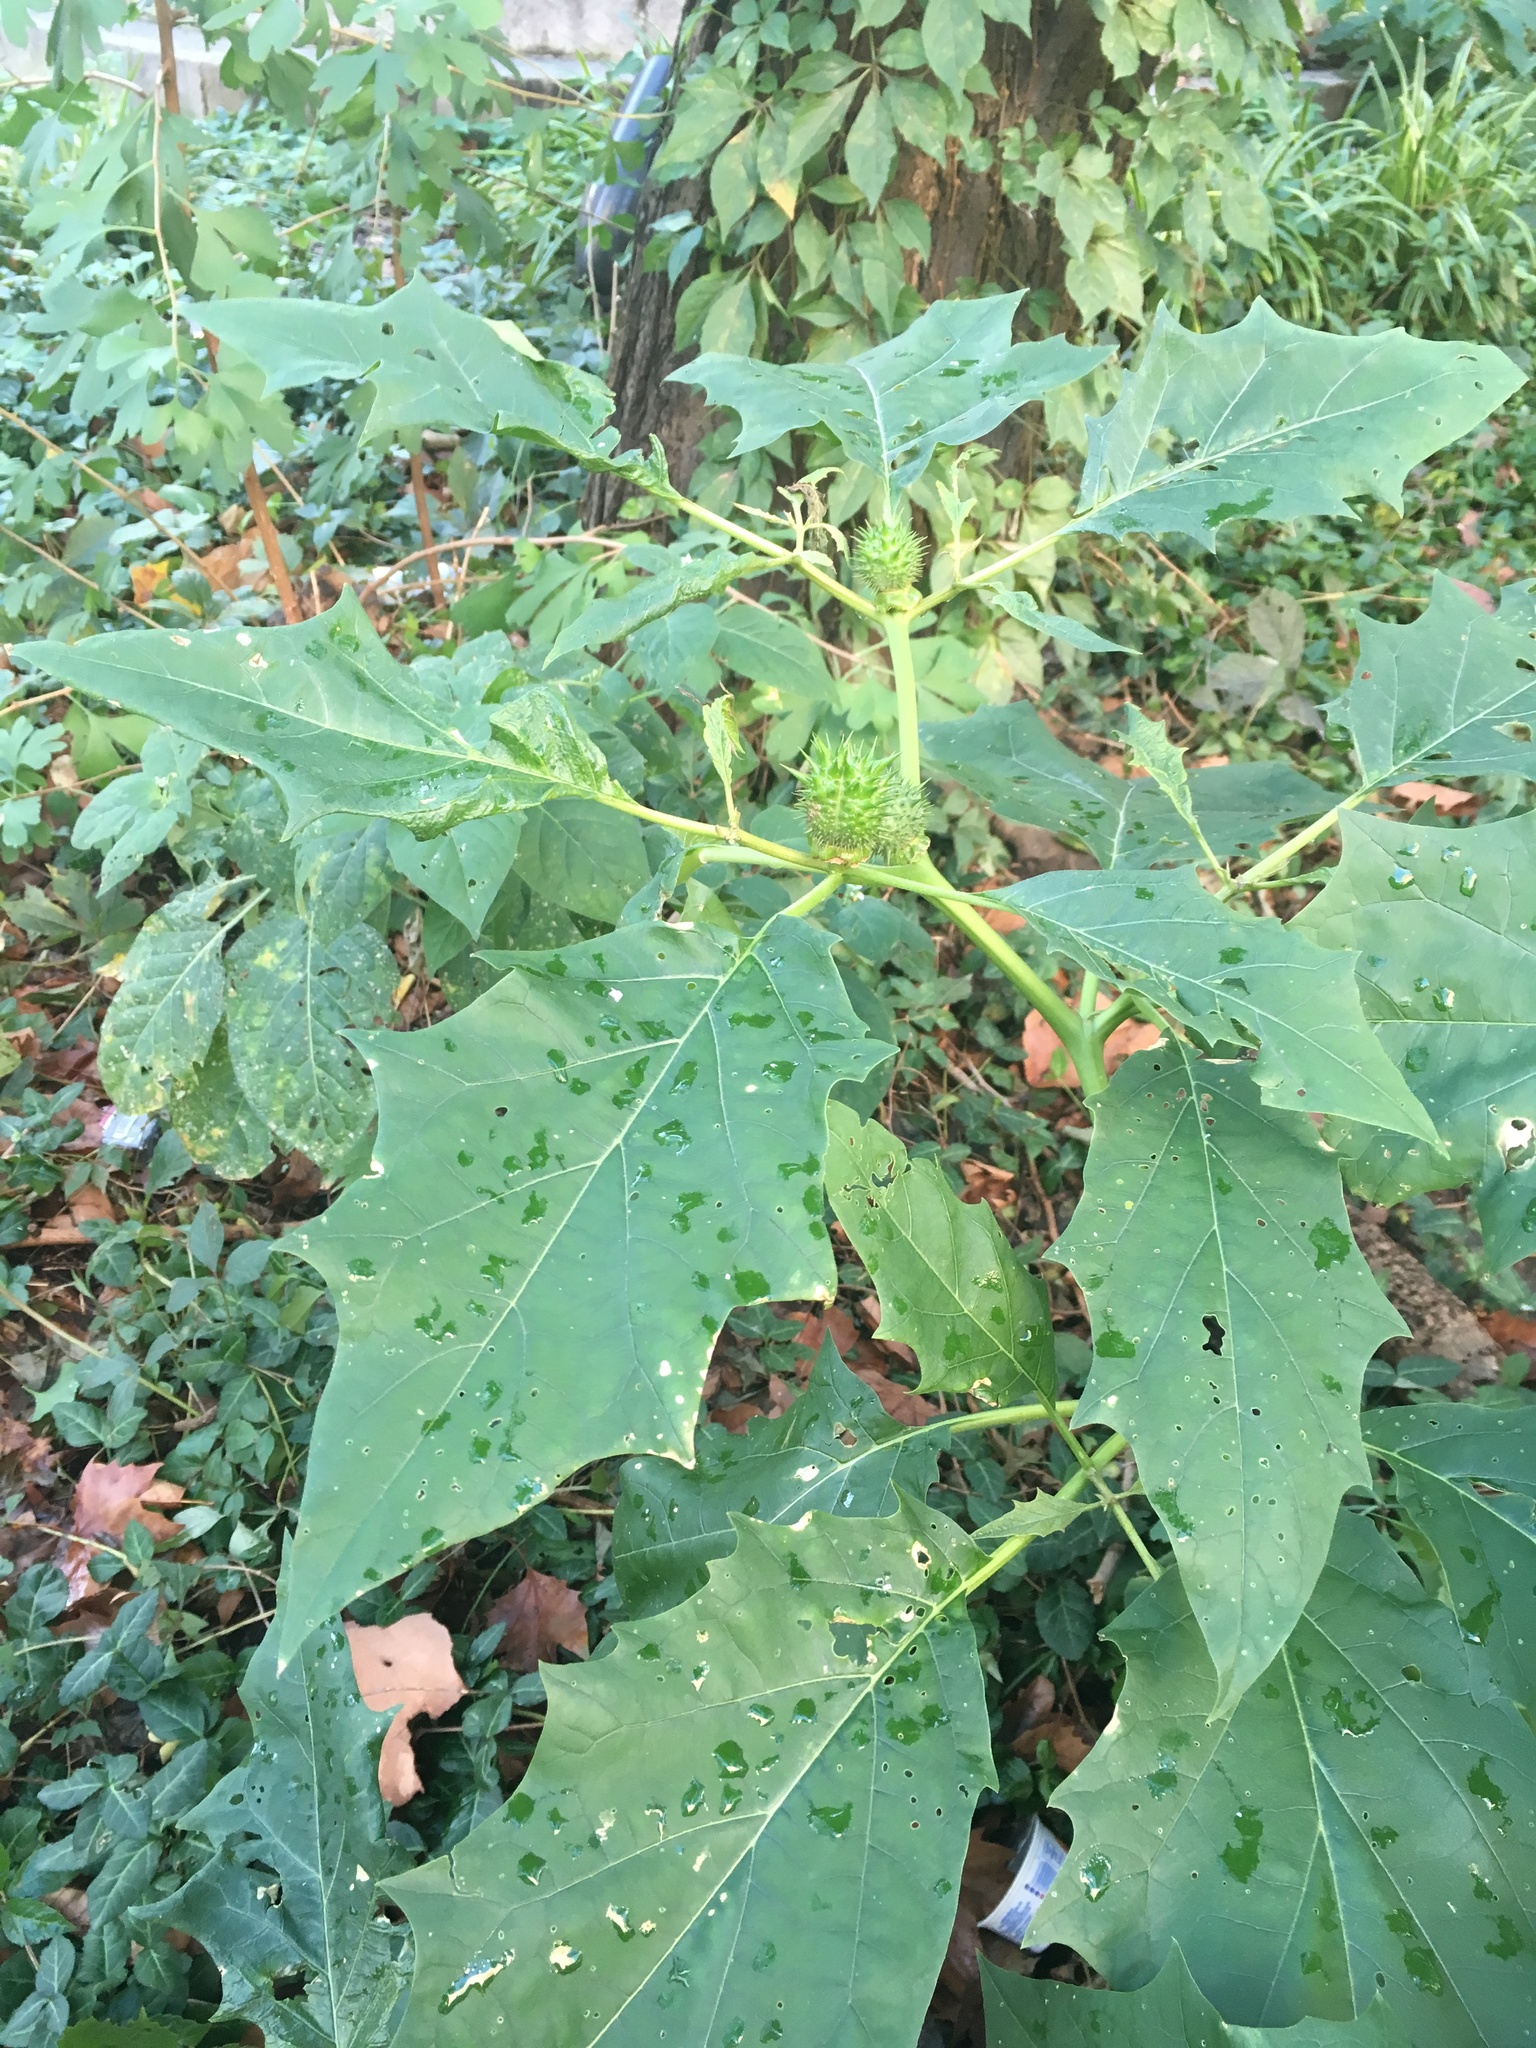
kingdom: Plantae
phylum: Tracheophyta
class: Magnoliopsida
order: Solanales
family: Solanaceae
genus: Datura
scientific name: Datura stramonium
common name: Thorn-apple
